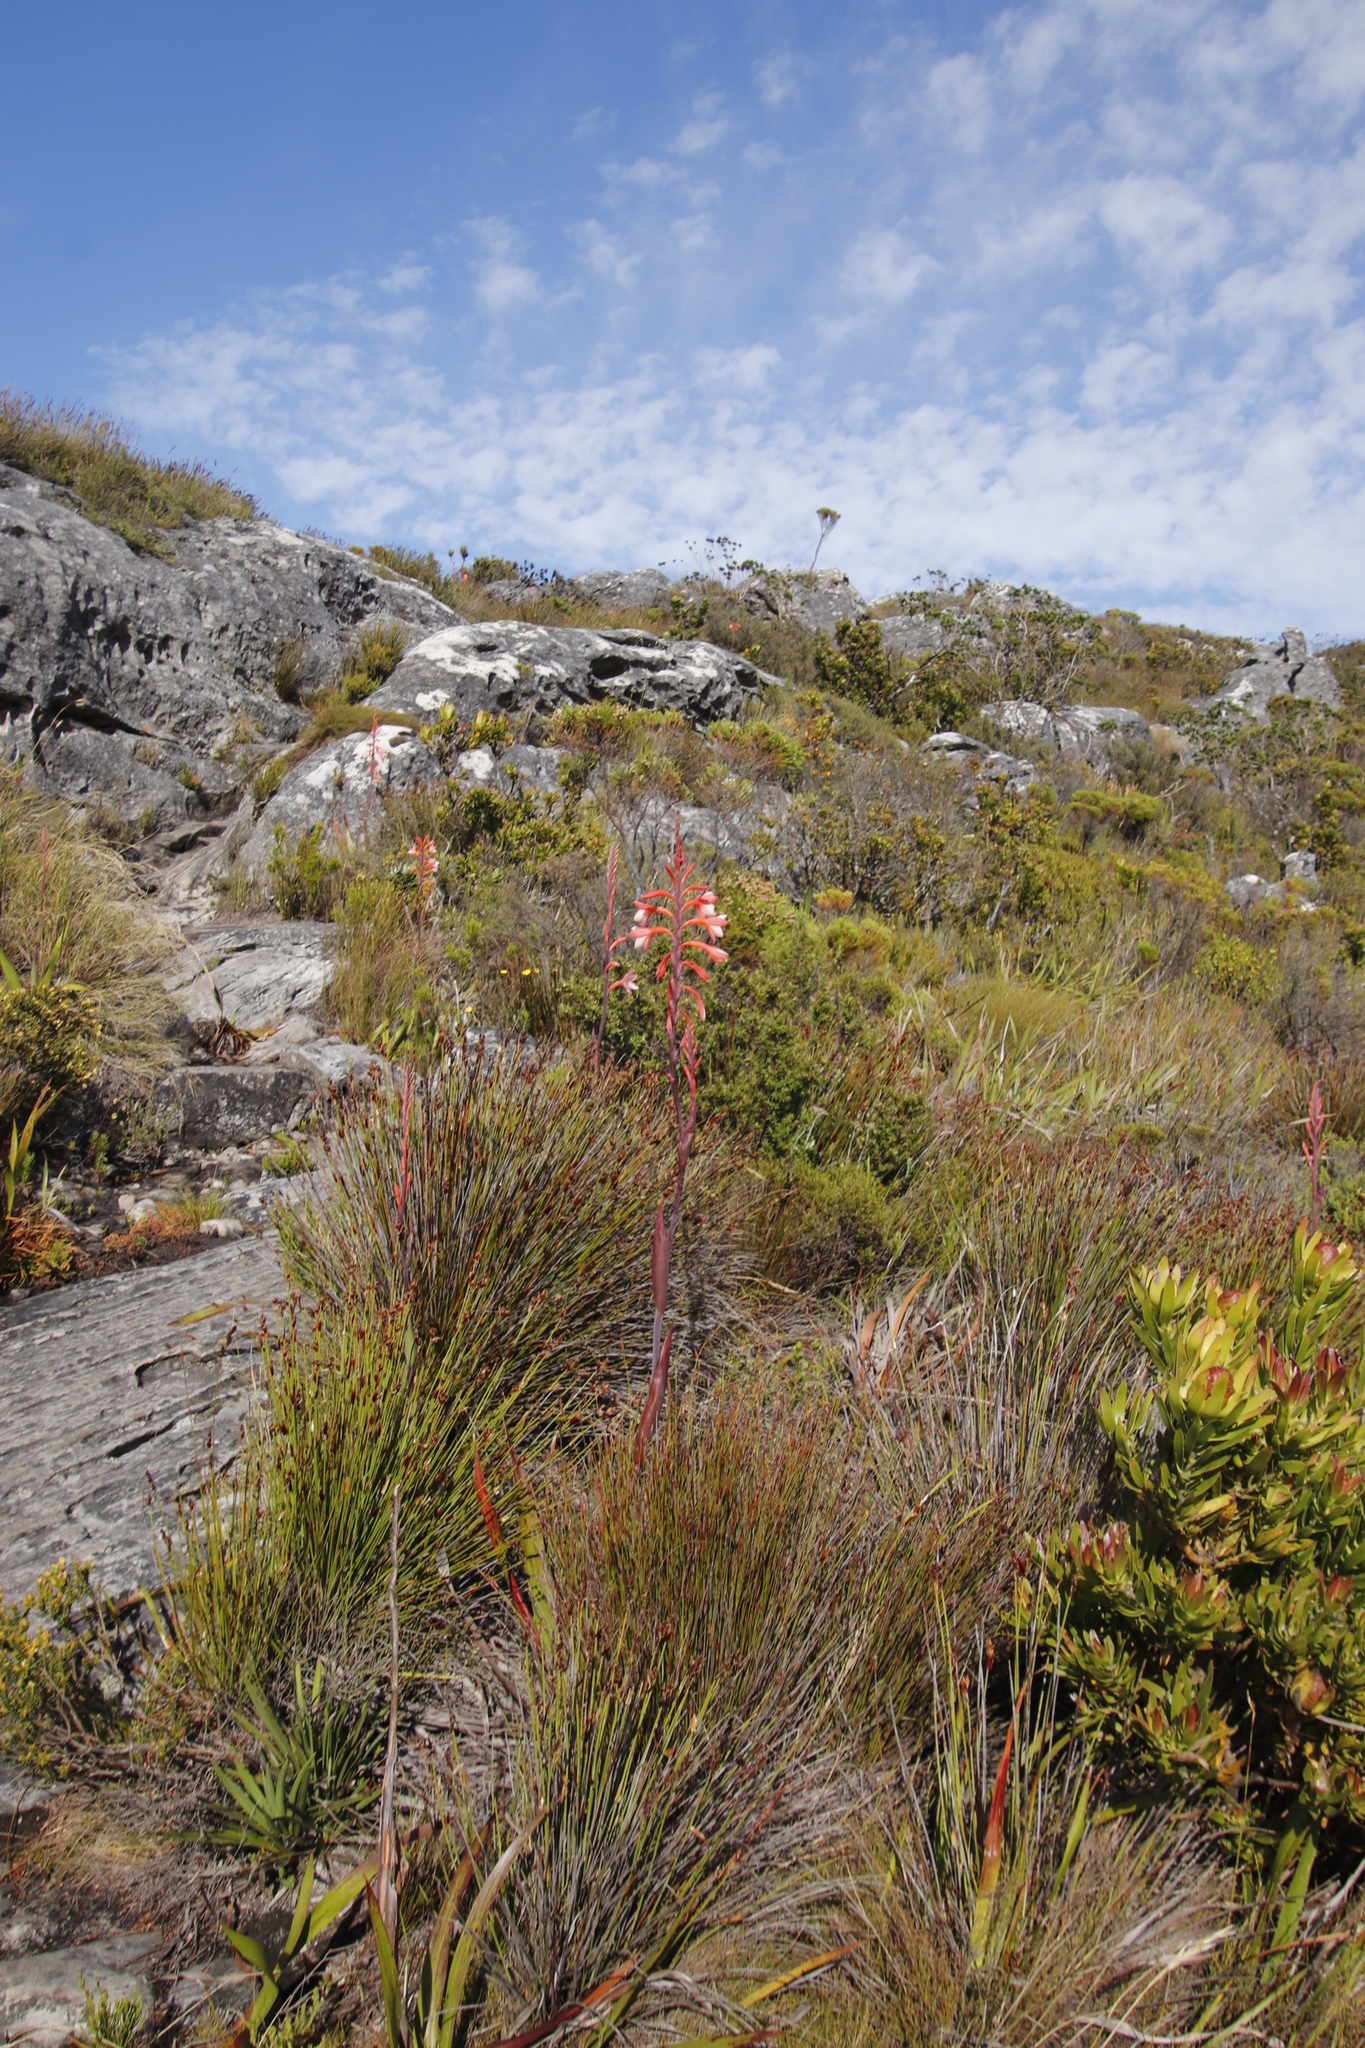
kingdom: Plantae
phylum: Tracheophyta
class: Liliopsida
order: Asparagales
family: Iridaceae
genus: Watsonia
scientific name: Watsonia tabularis
